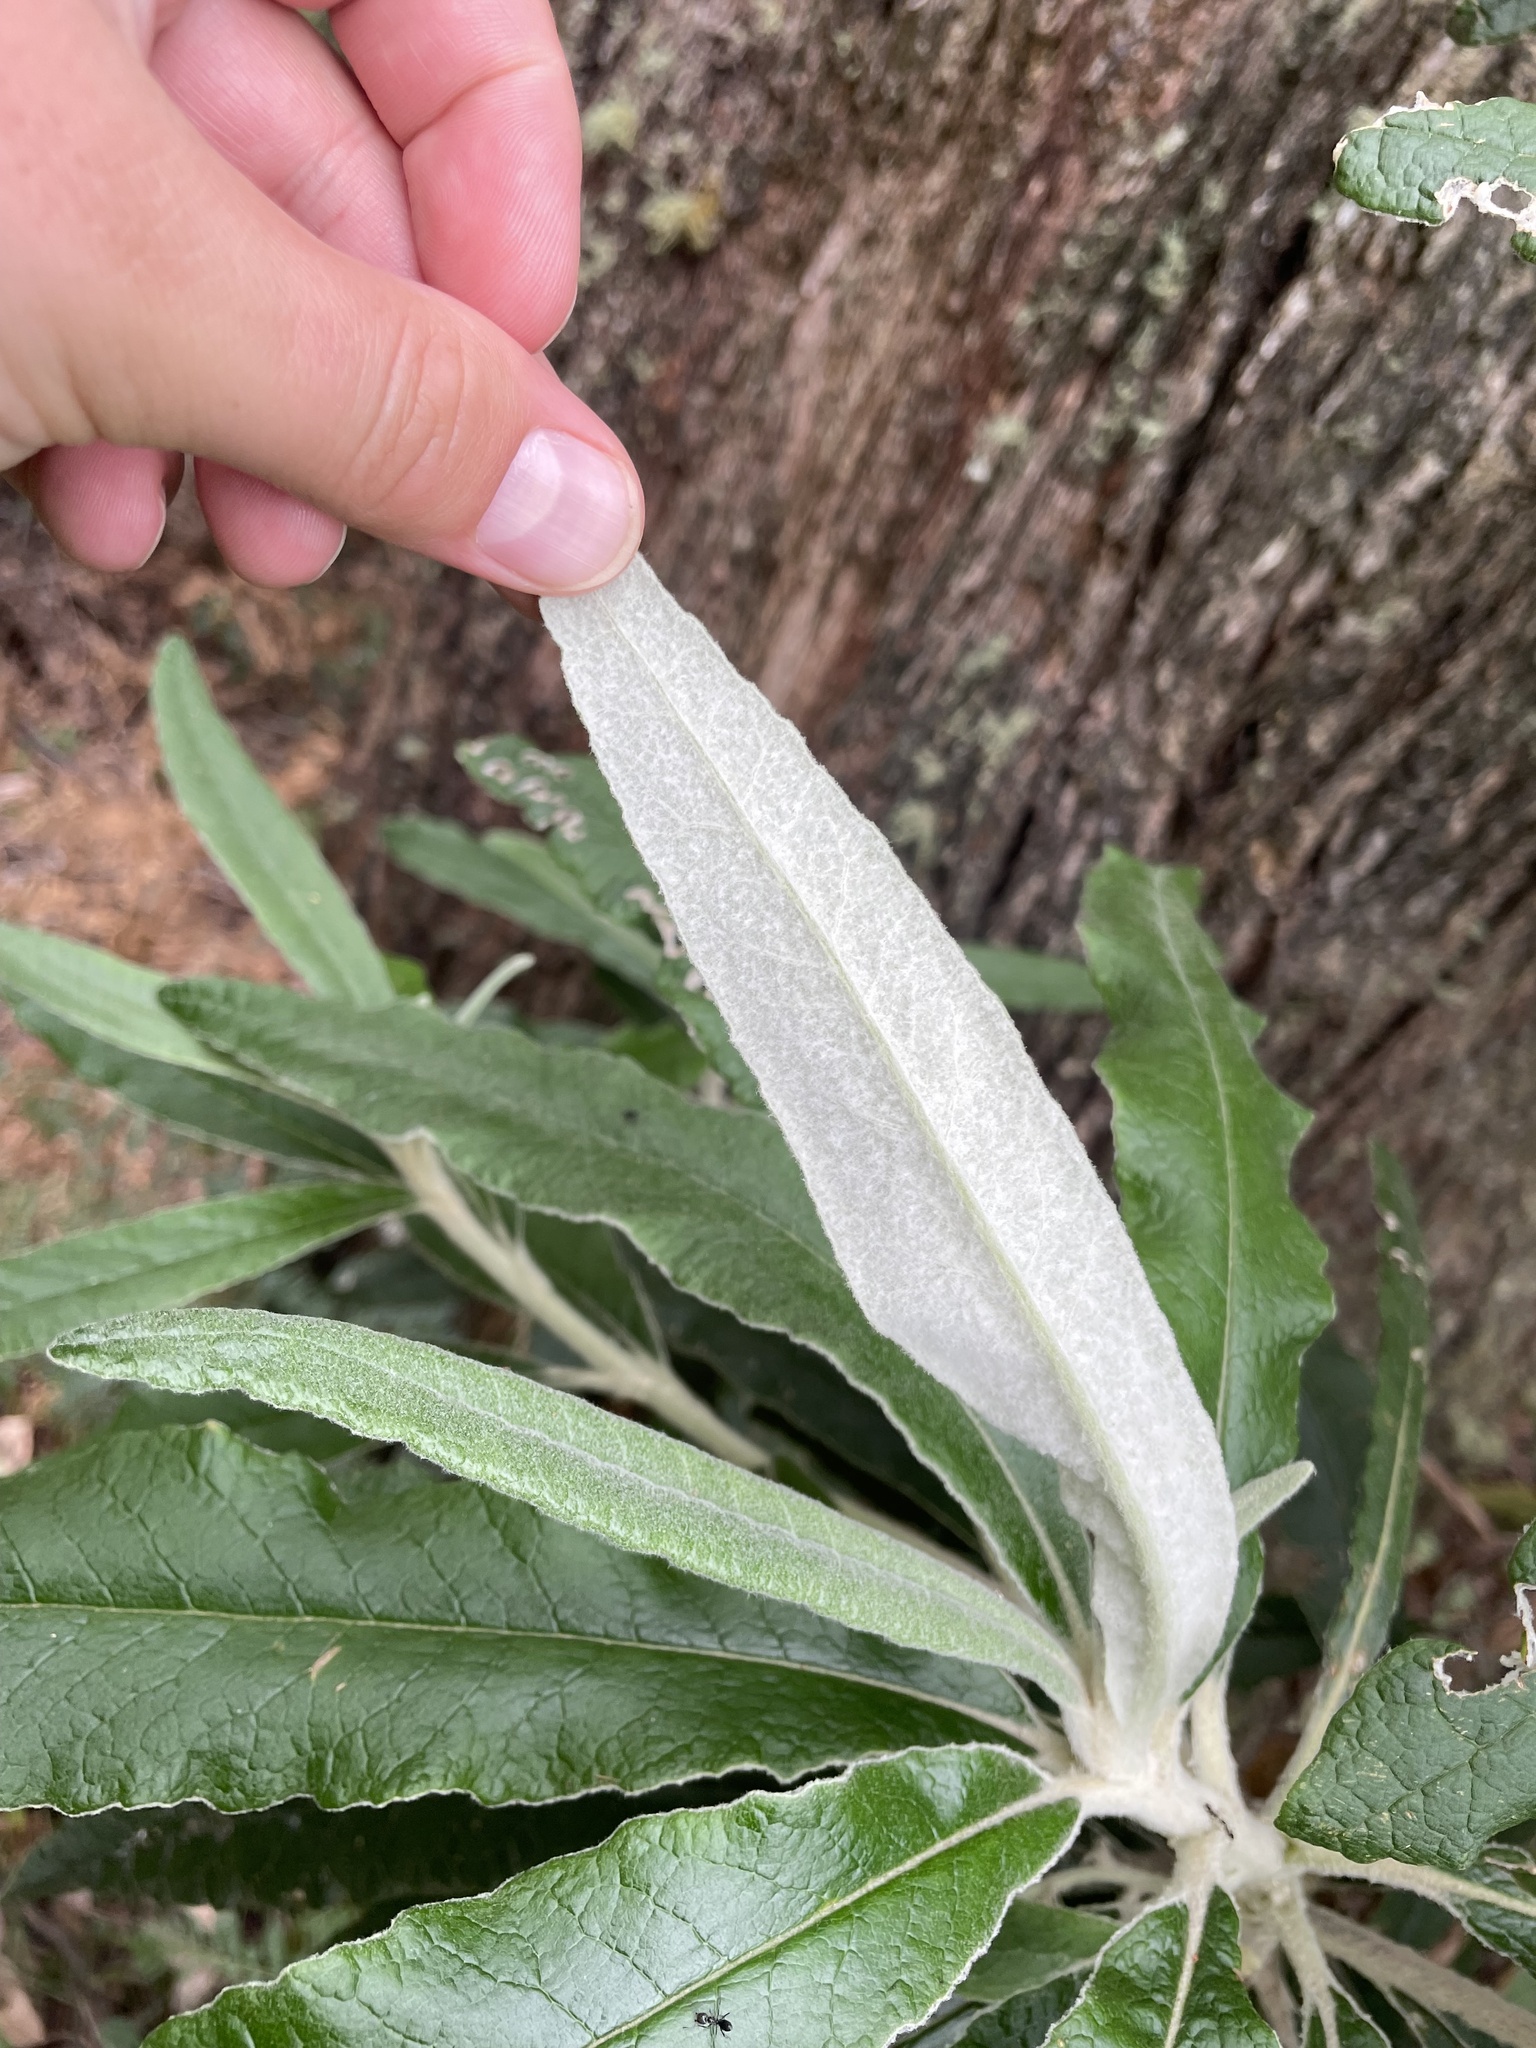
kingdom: Plantae
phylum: Tracheophyta
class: Magnoliopsida
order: Asterales
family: Asteraceae
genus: Bedfordia
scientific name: Bedfordia arborescens
